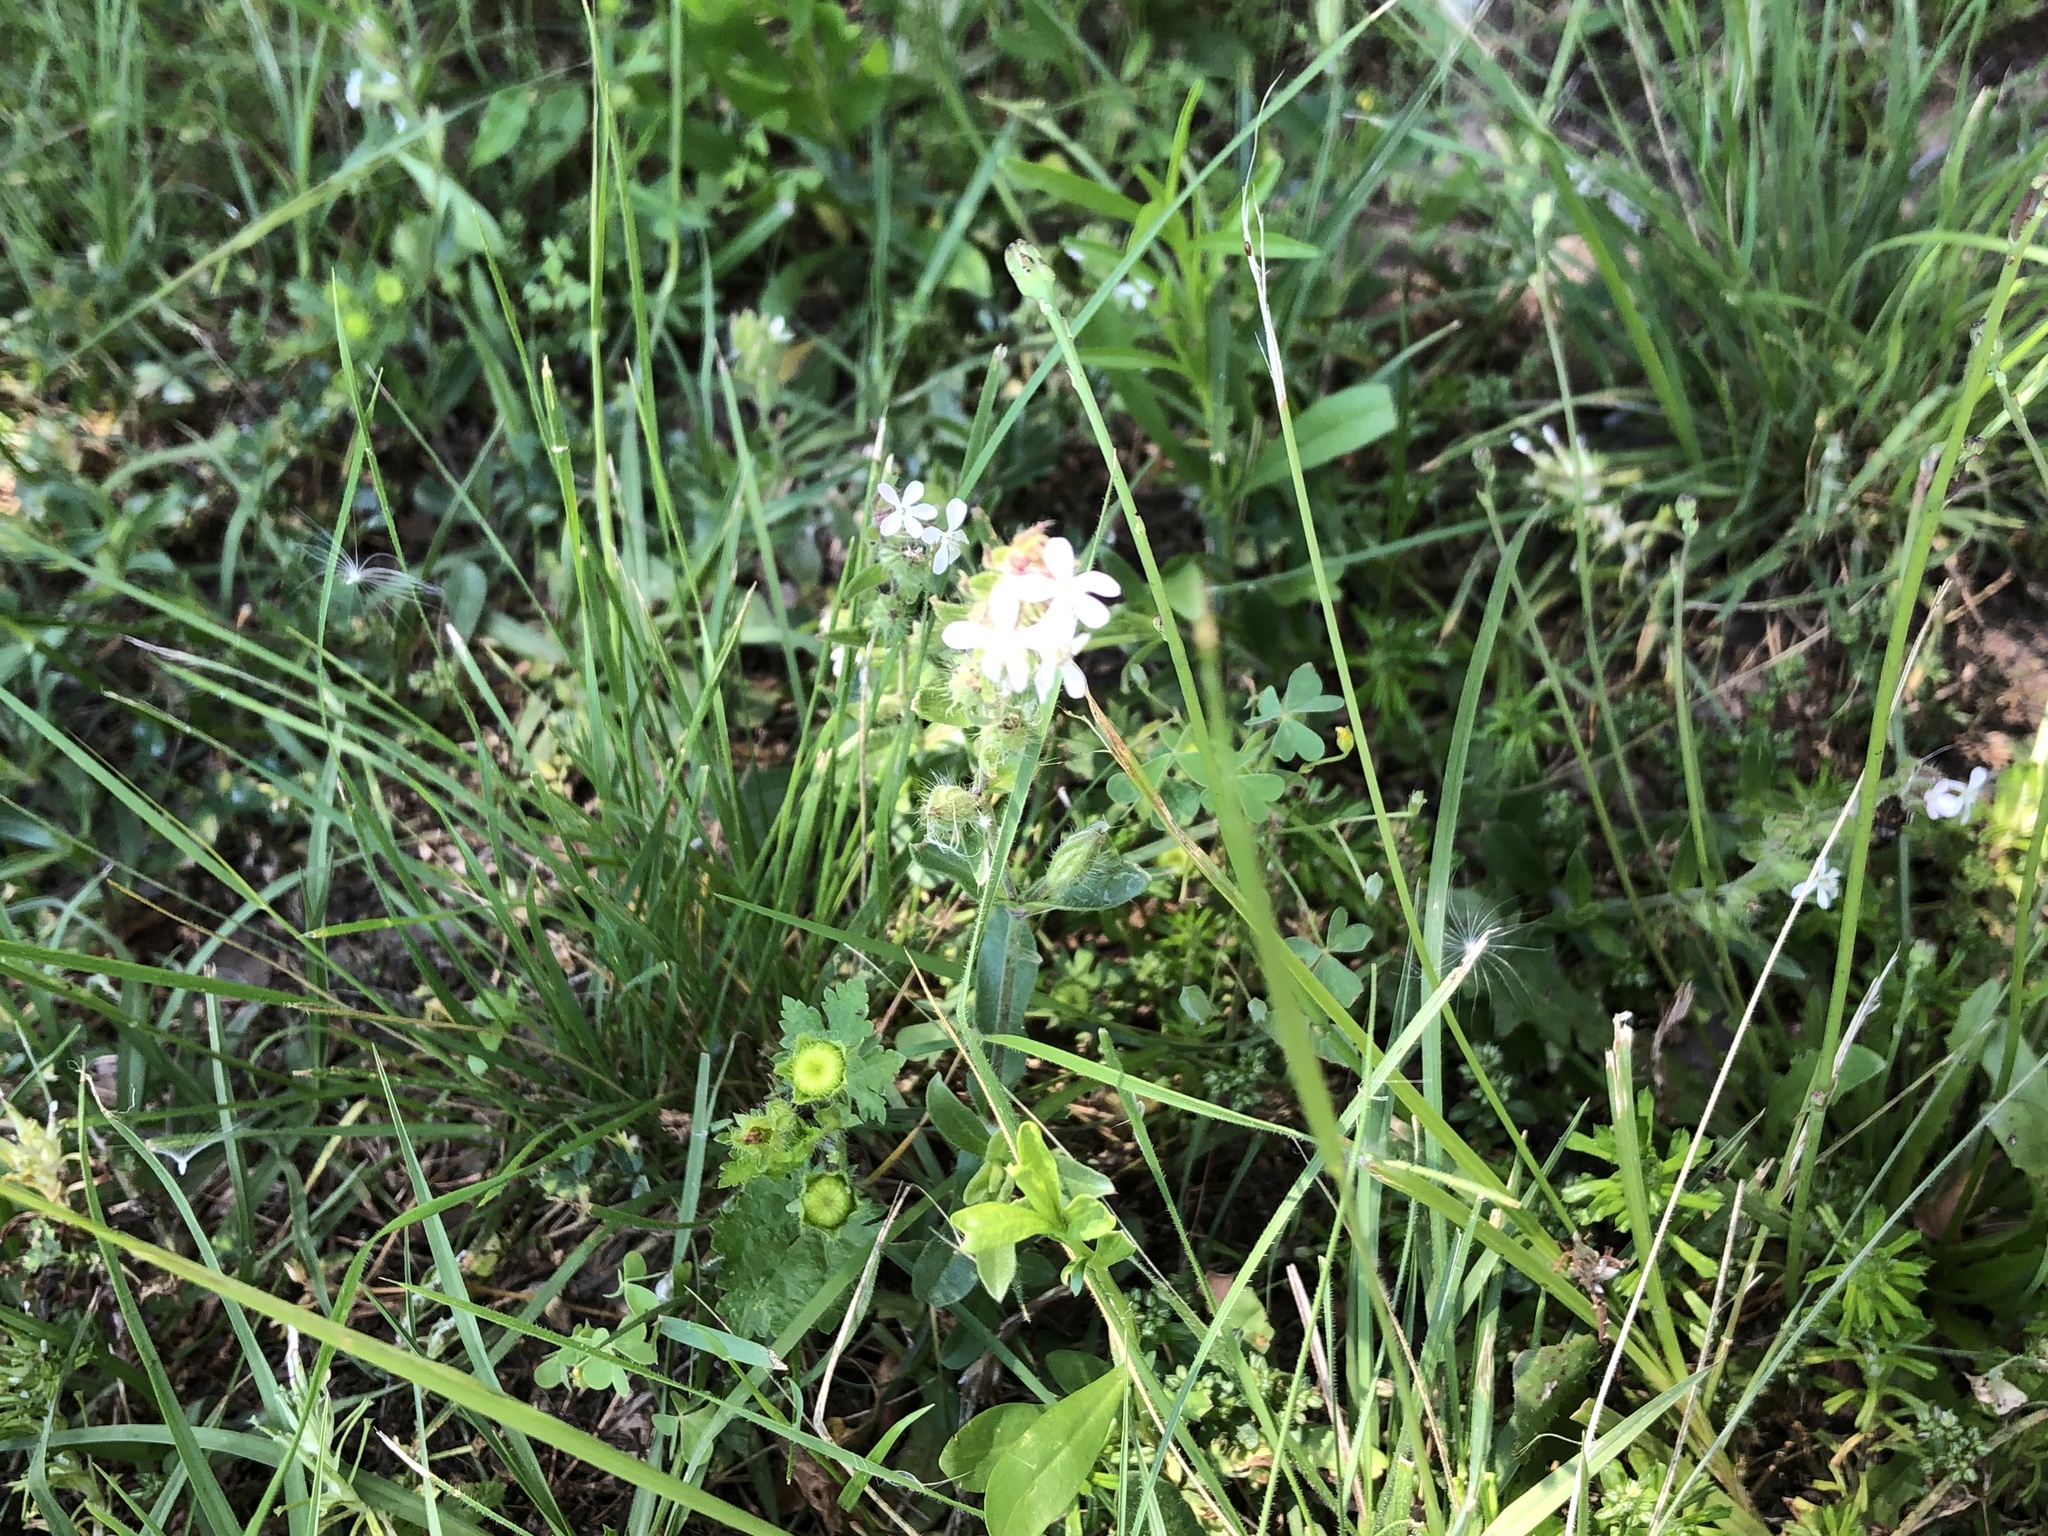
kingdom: Plantae
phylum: Tracheophyta
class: Magnoliopsida
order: Caryophyllales
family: Caryophyllaceae
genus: Silene
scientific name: Silene gallica
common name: Small-flowered catchfly
